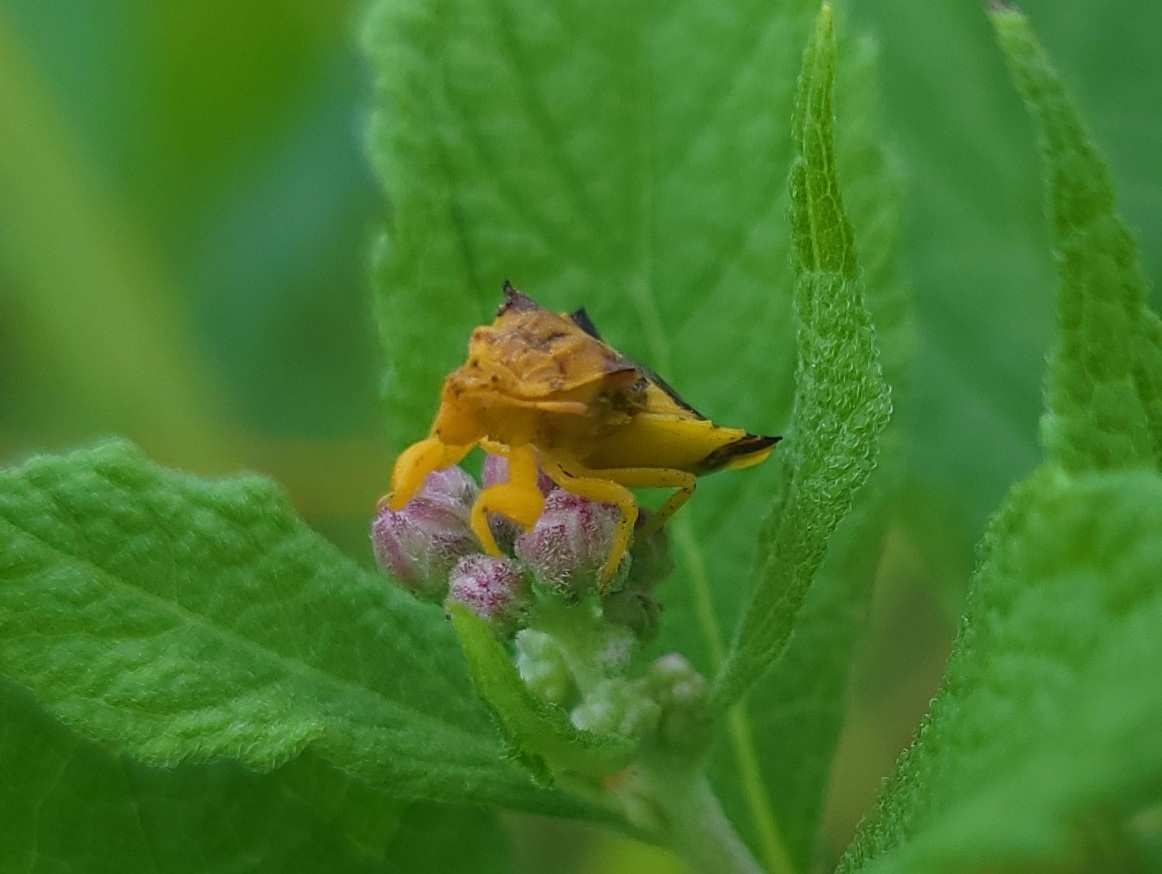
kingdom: Animalia
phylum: Arthropoda
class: Insecta
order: Hemiptera
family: Reduviidae
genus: Phymata
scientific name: Phymata americana
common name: Jagged ambush bug
